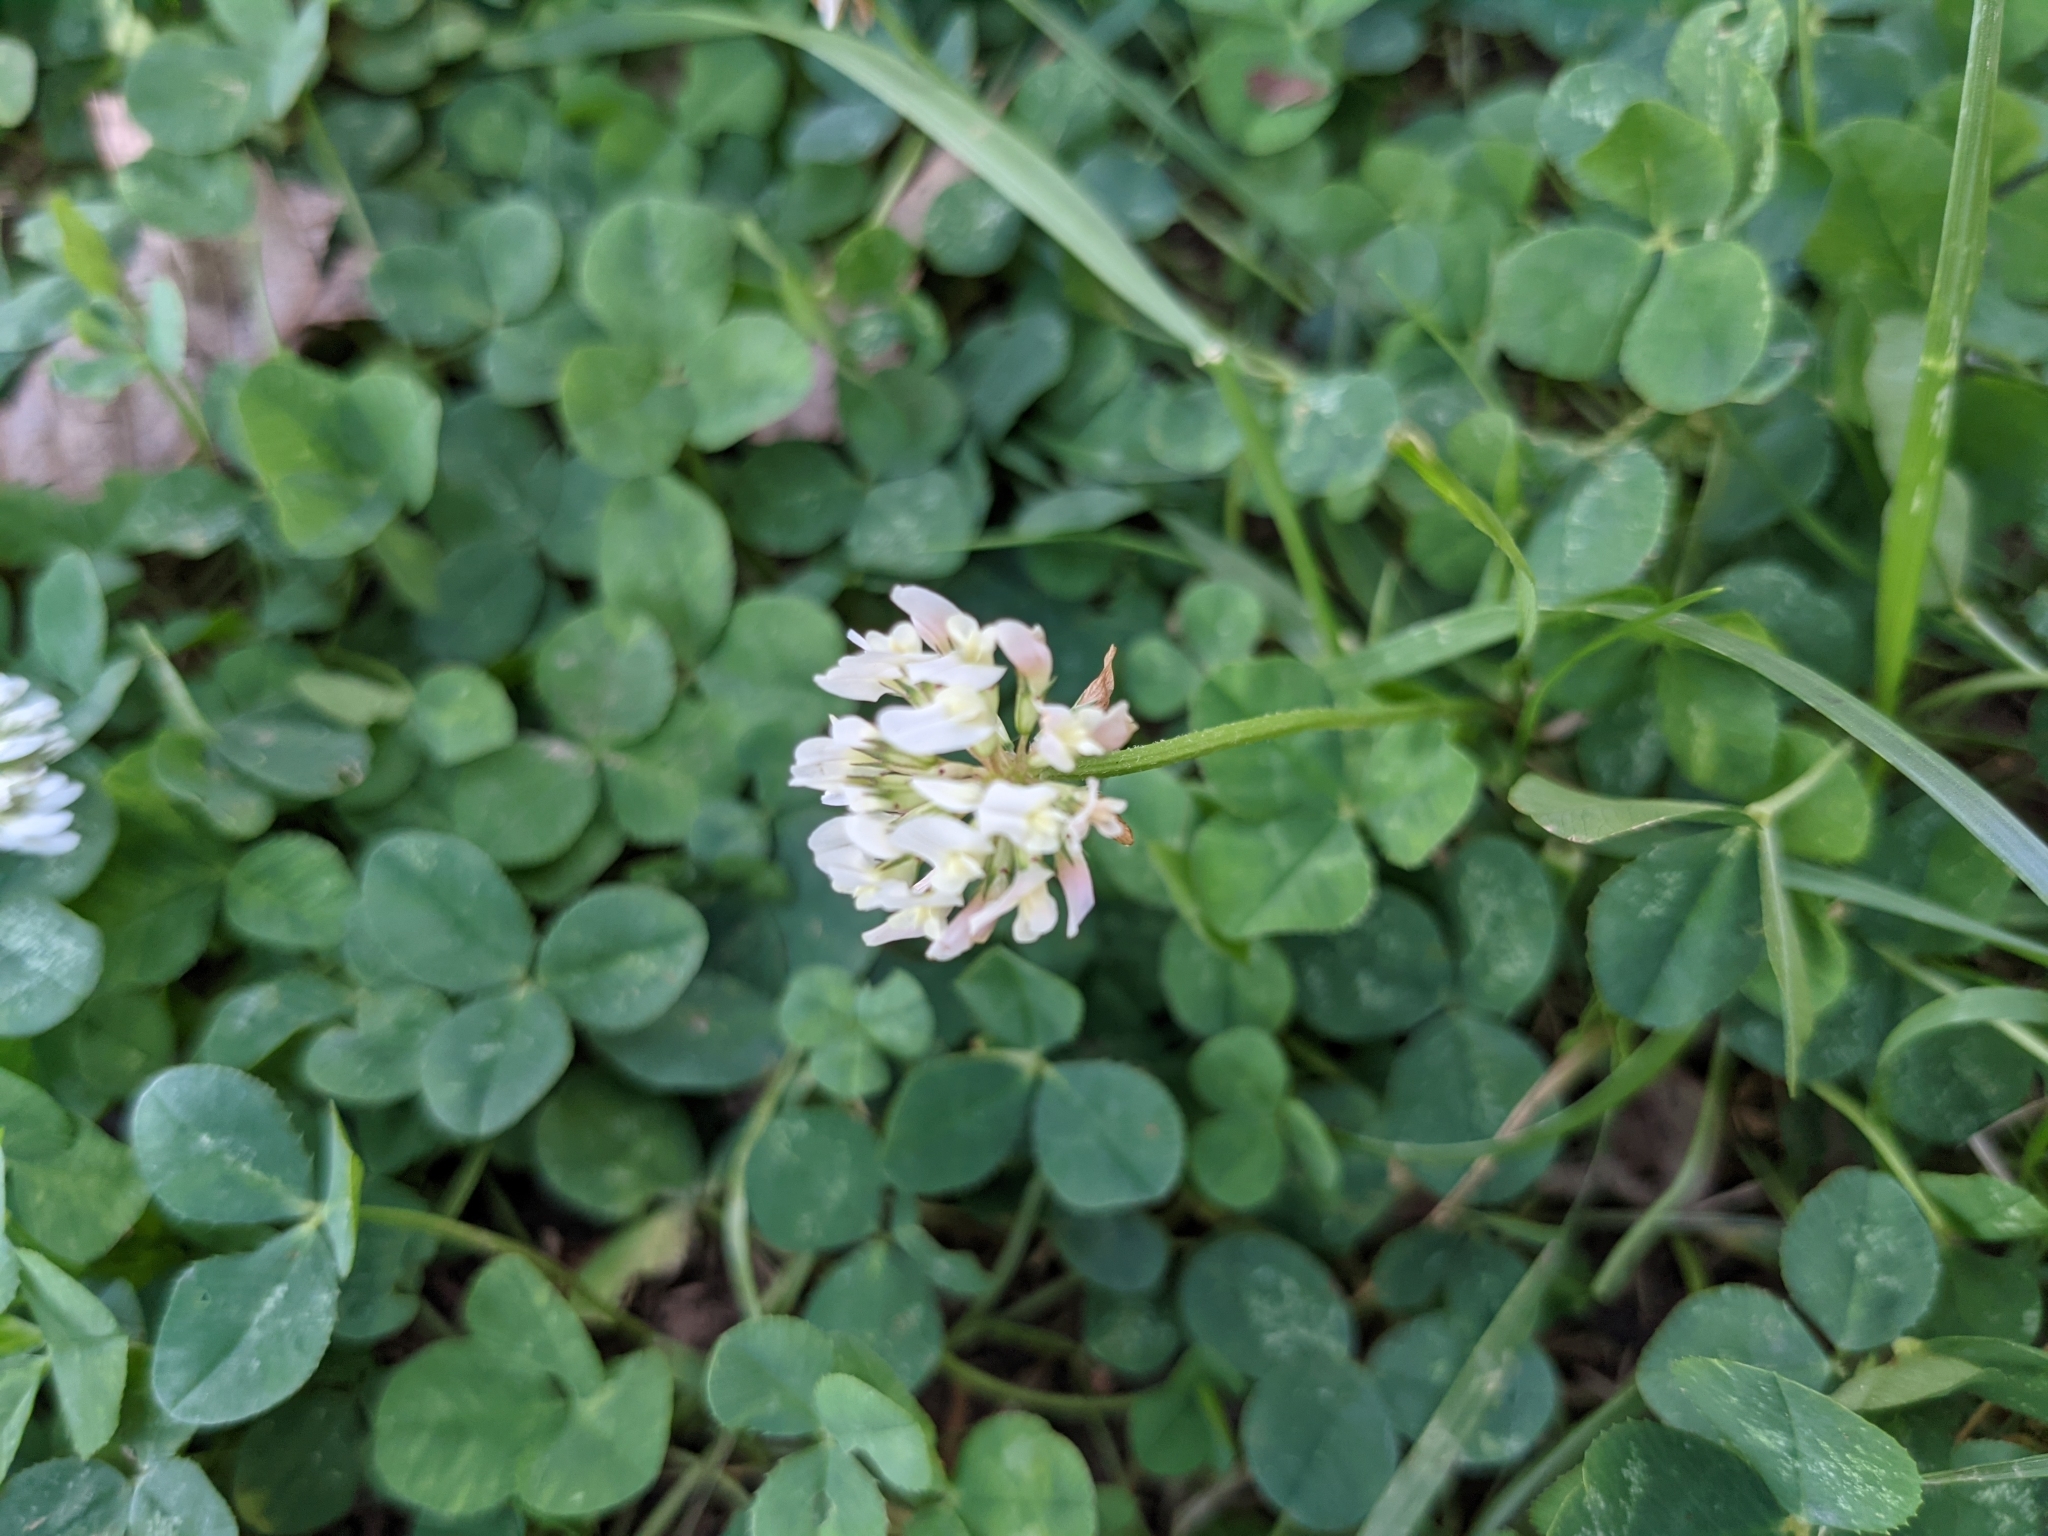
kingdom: Plantae
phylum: Tracheophyta
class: Magnoliopsida
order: Fabales
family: Fabaceae
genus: Trifolium
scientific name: Trifolium repens
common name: White clover
